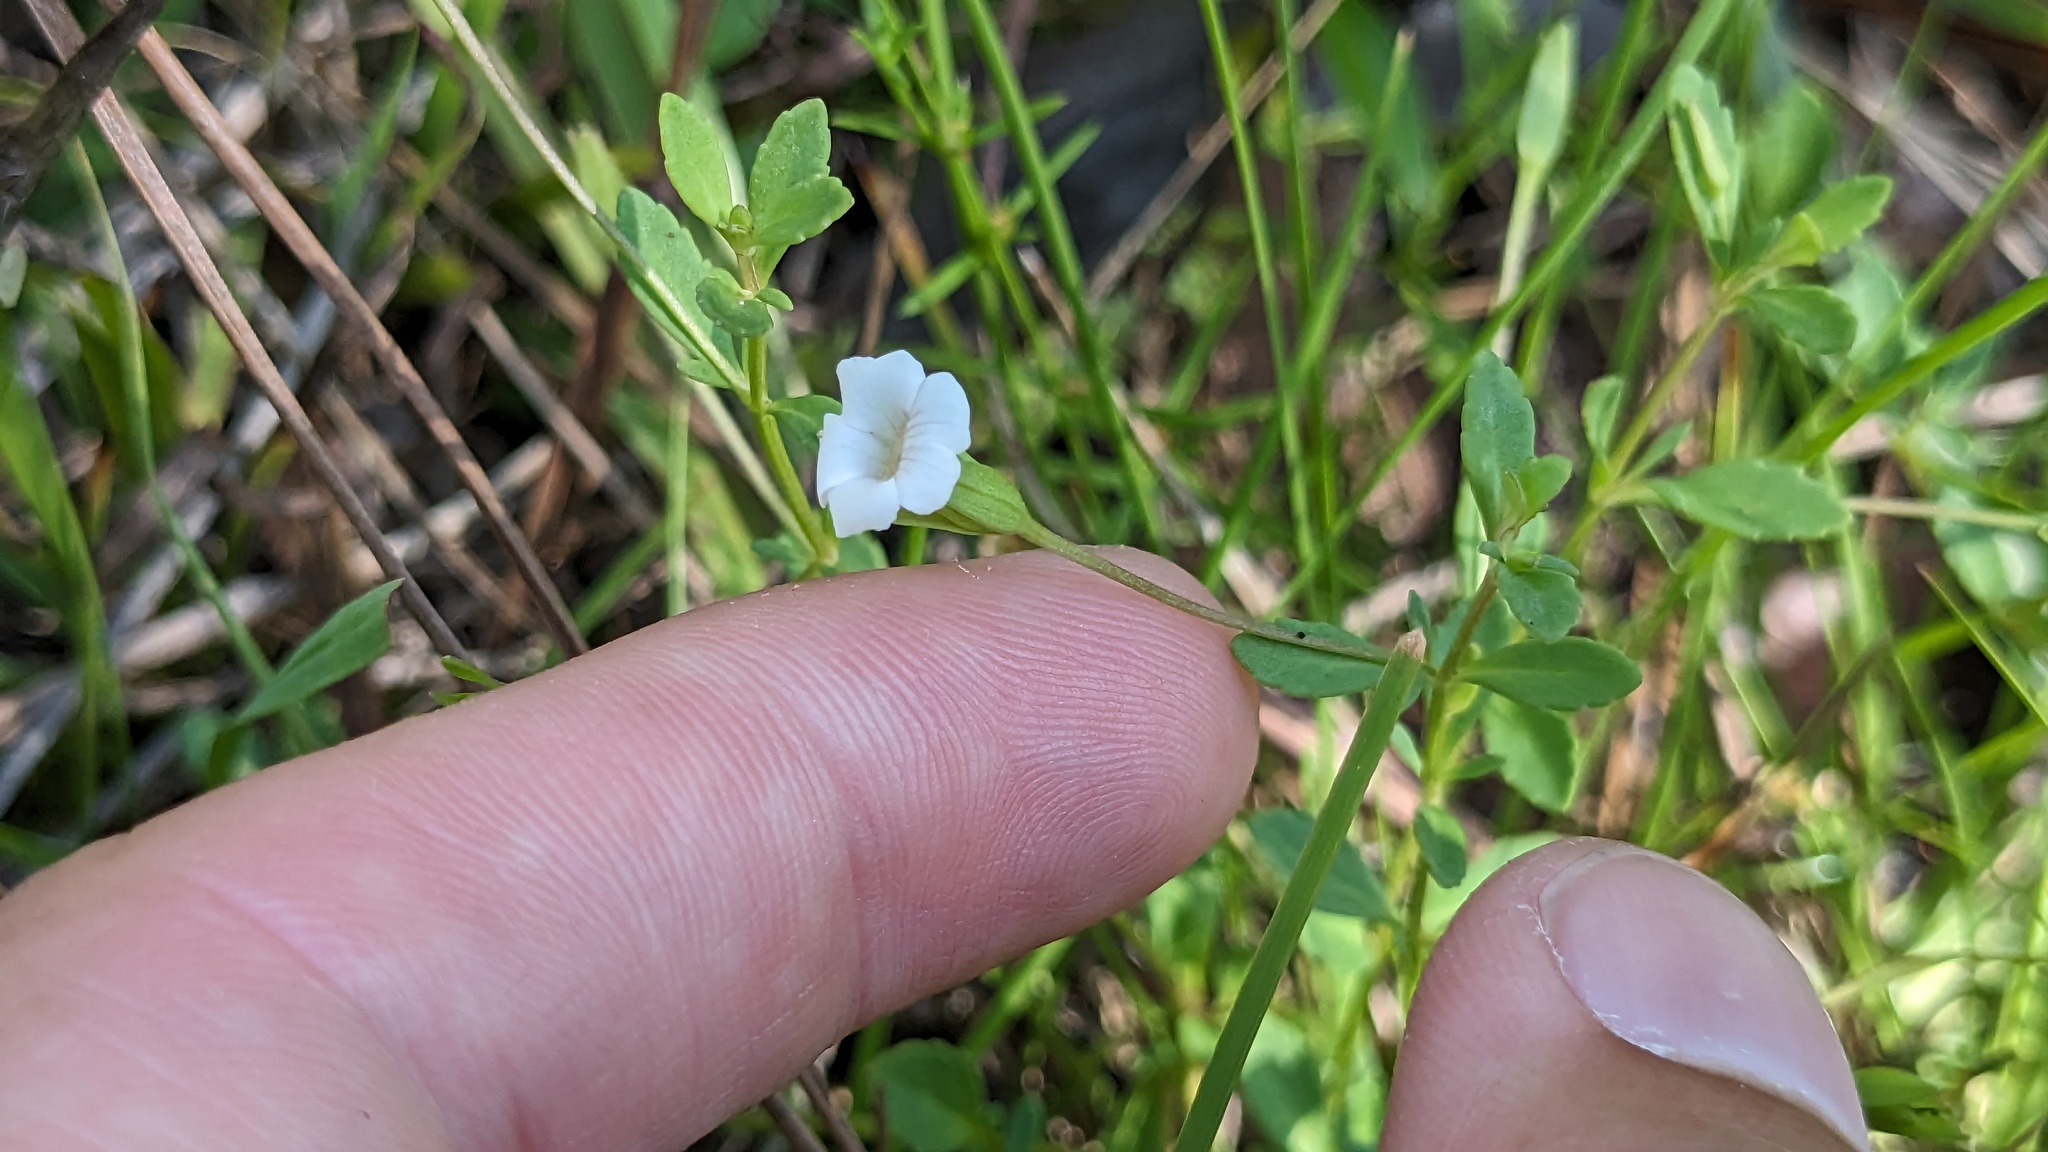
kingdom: Plantae
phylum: Tracheophyta
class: Magnoliopsida
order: Lamiales
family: Plantaginaceae
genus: Mecardonia
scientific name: Mecardonia acuminata
